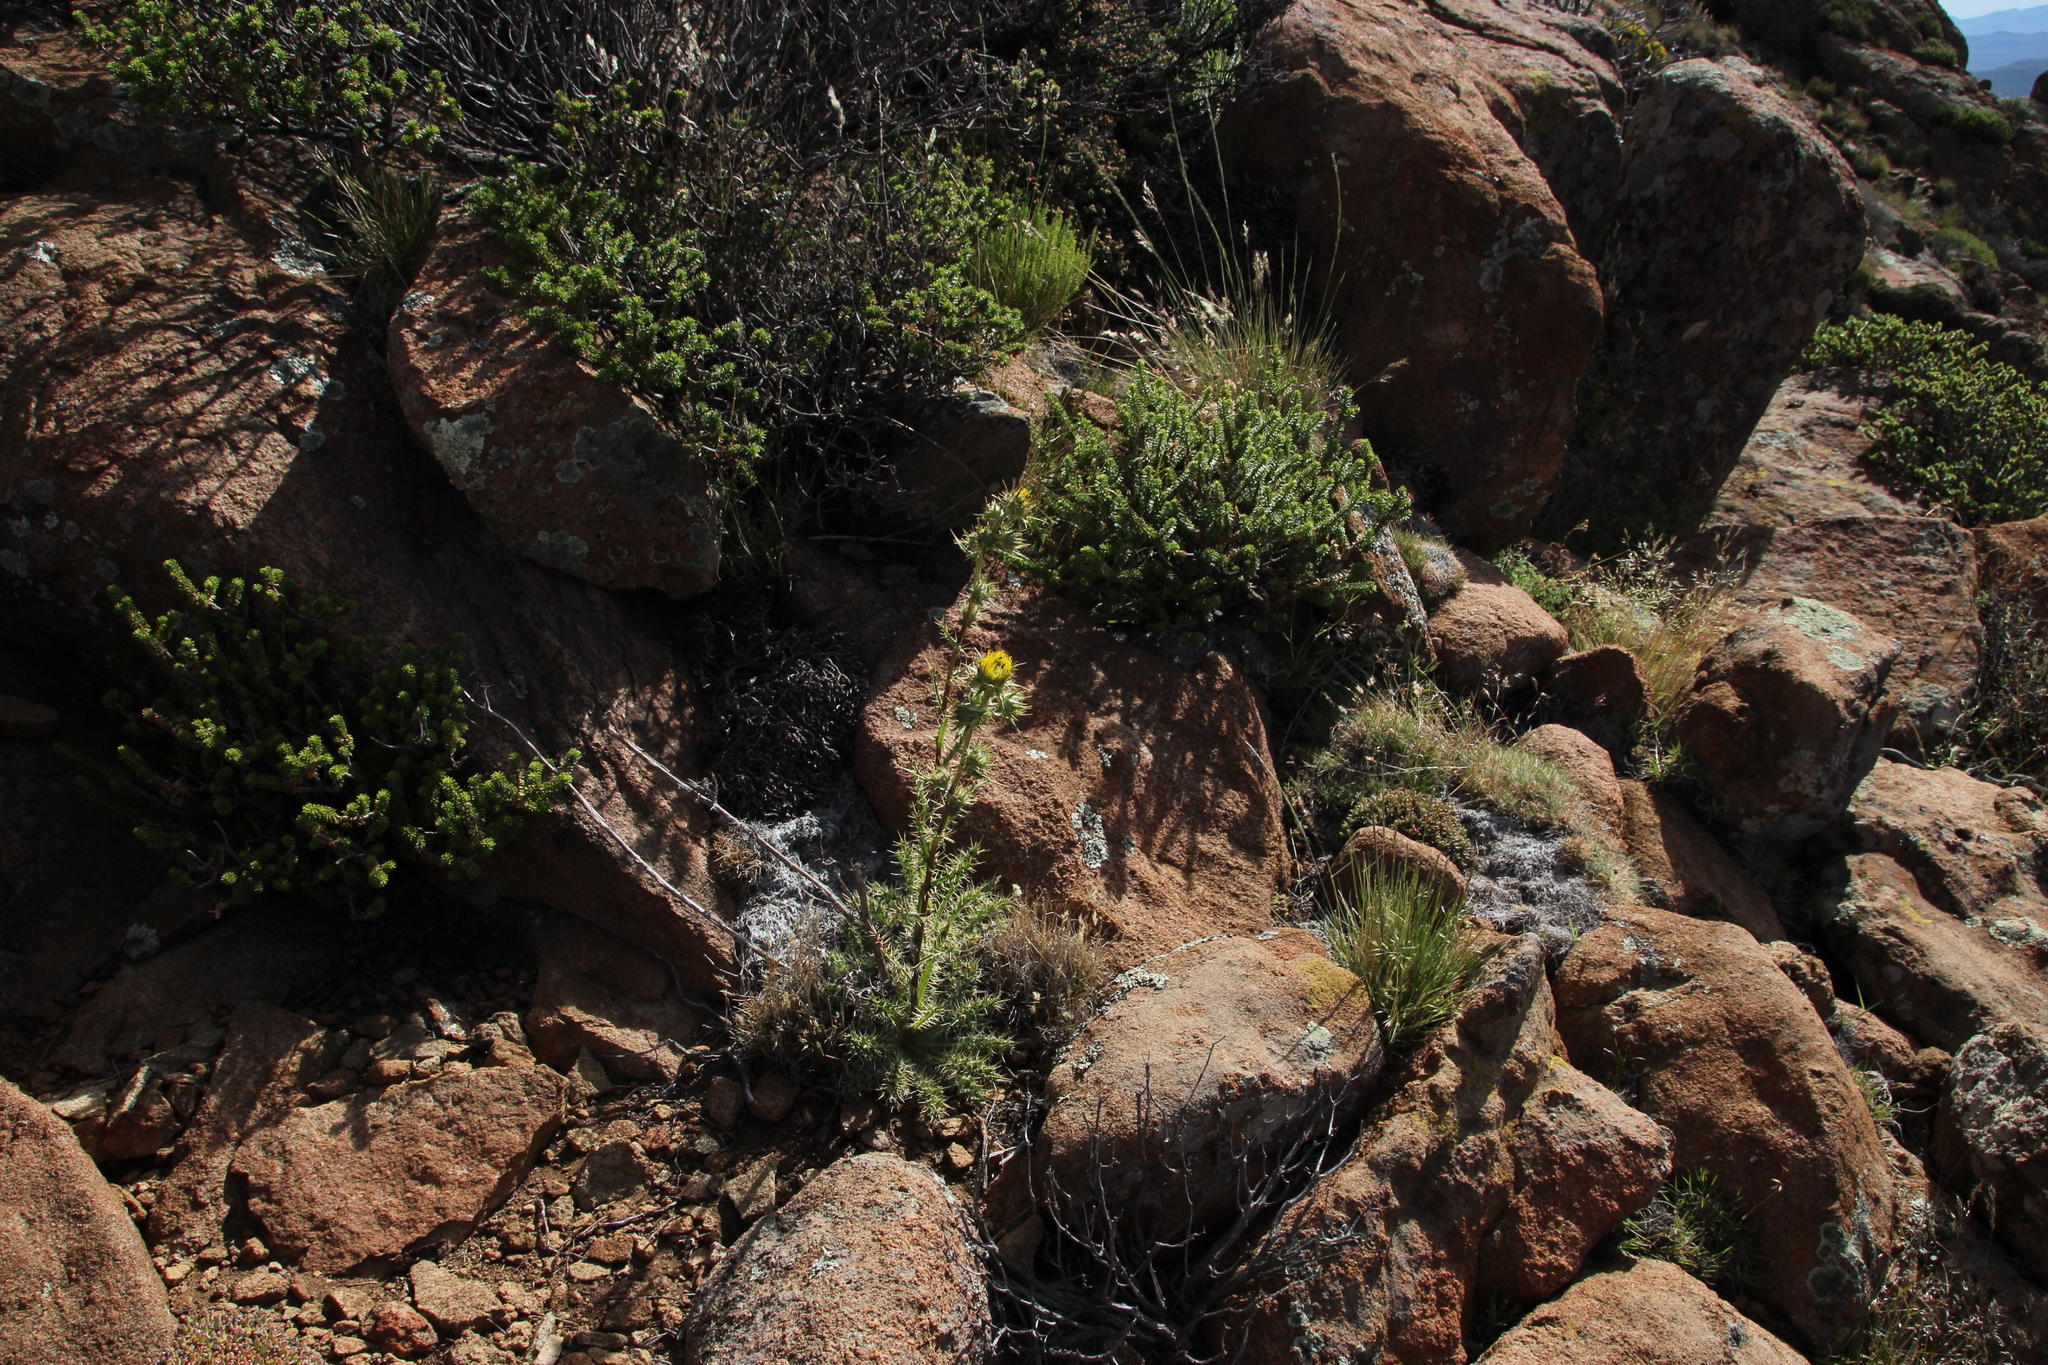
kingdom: Plantae
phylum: Tracheophyta
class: Magnoliopsida
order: Asterales
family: Asteraceae
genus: Berkheya
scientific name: Berkheya carlinifolia
